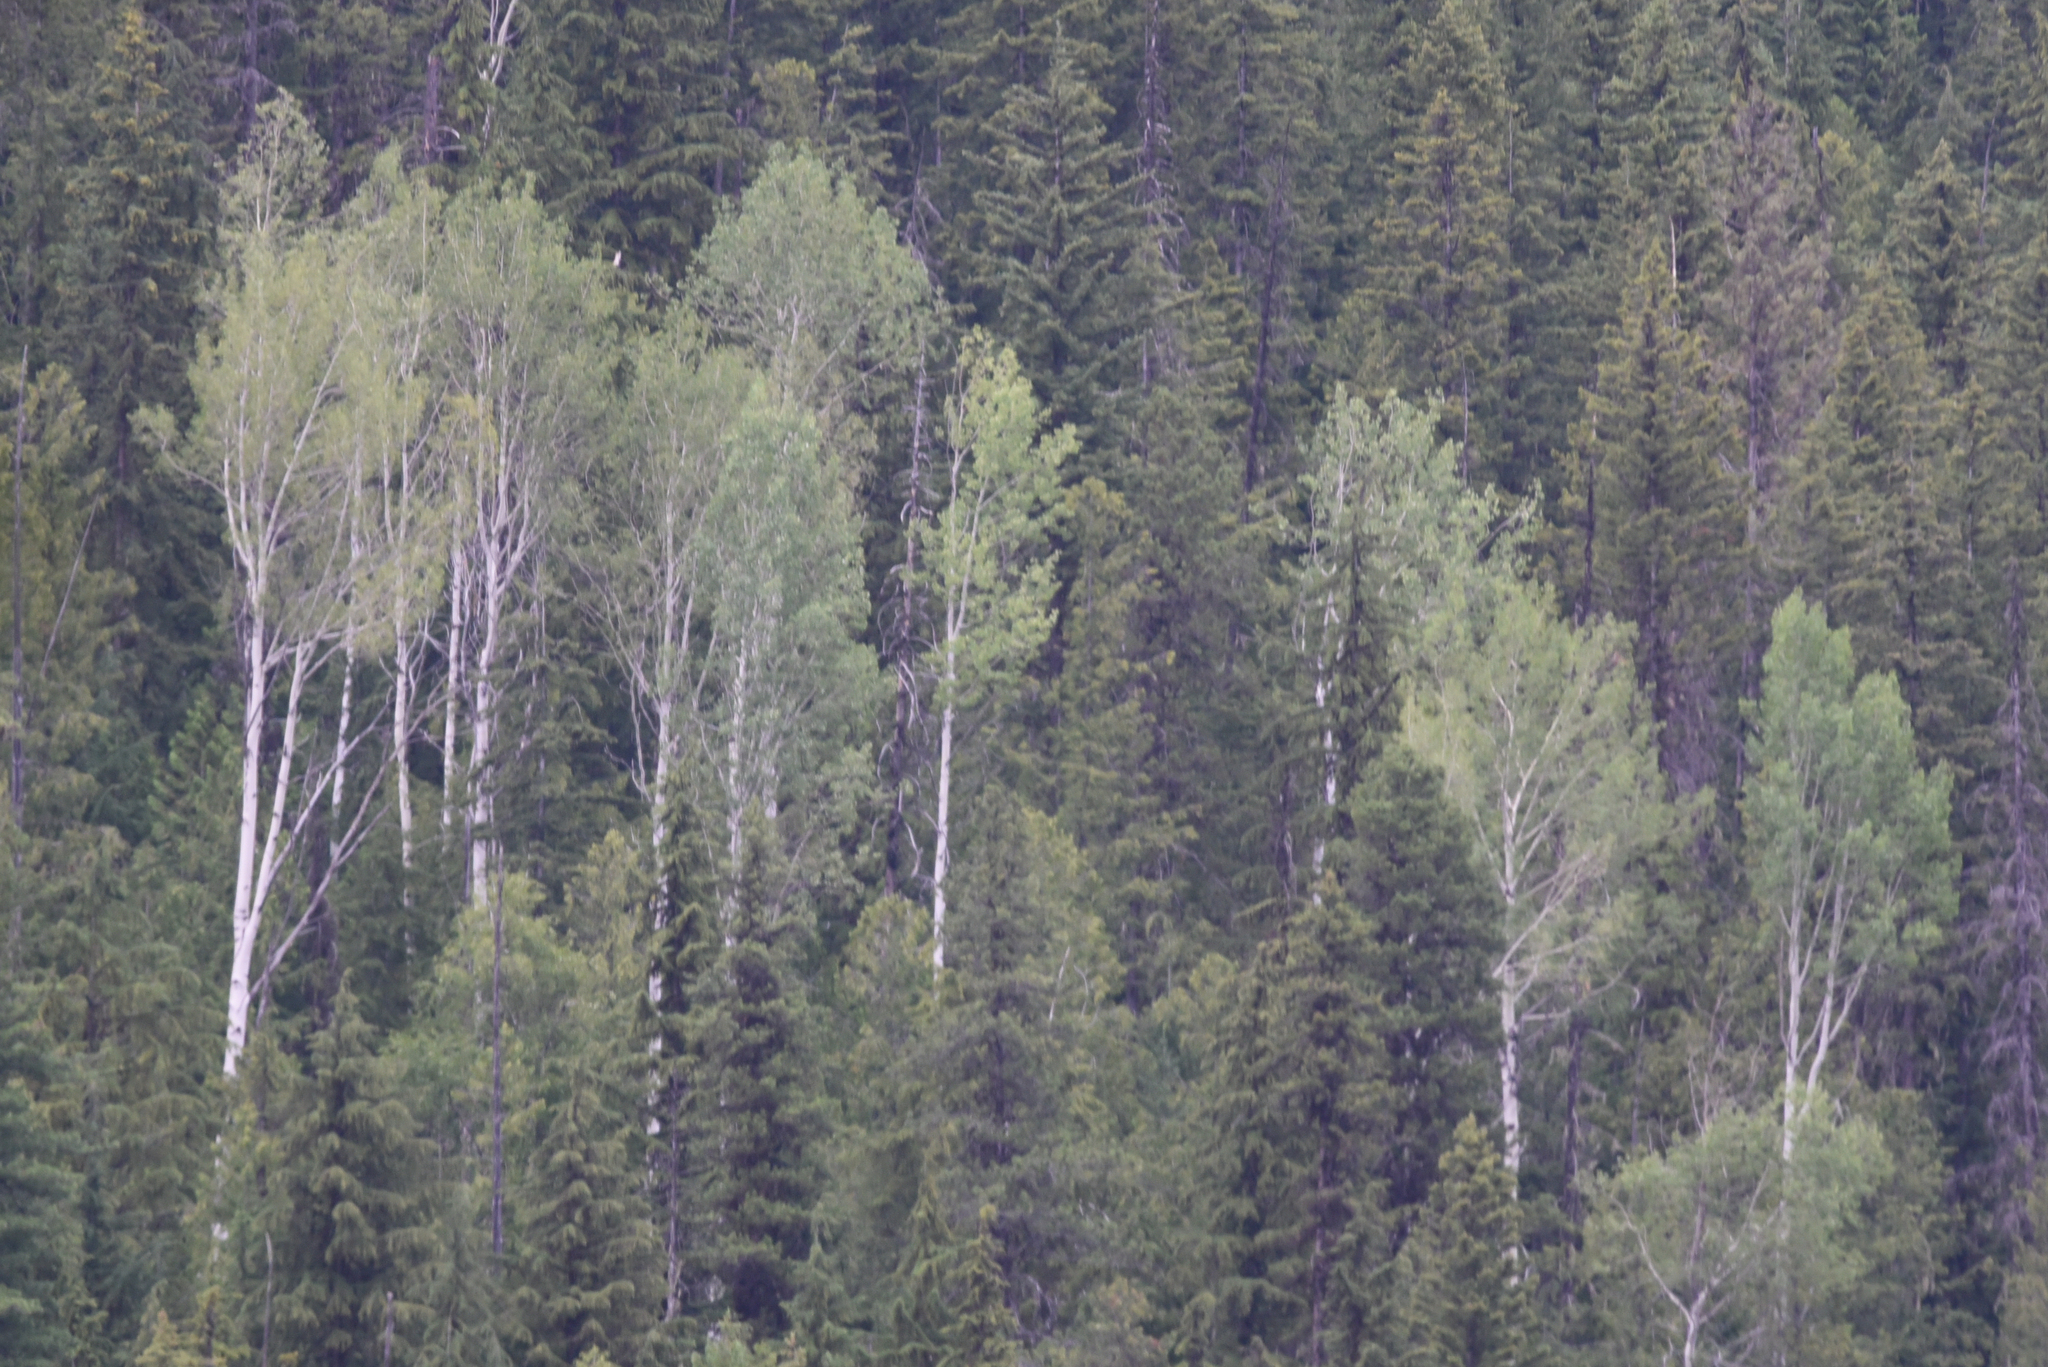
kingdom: Plantae
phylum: Tracheophyta
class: Magnoliopsida
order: Malpighiales
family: Salicaceae
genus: Populus
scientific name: Populus tremuloides
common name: Quaking aspen
